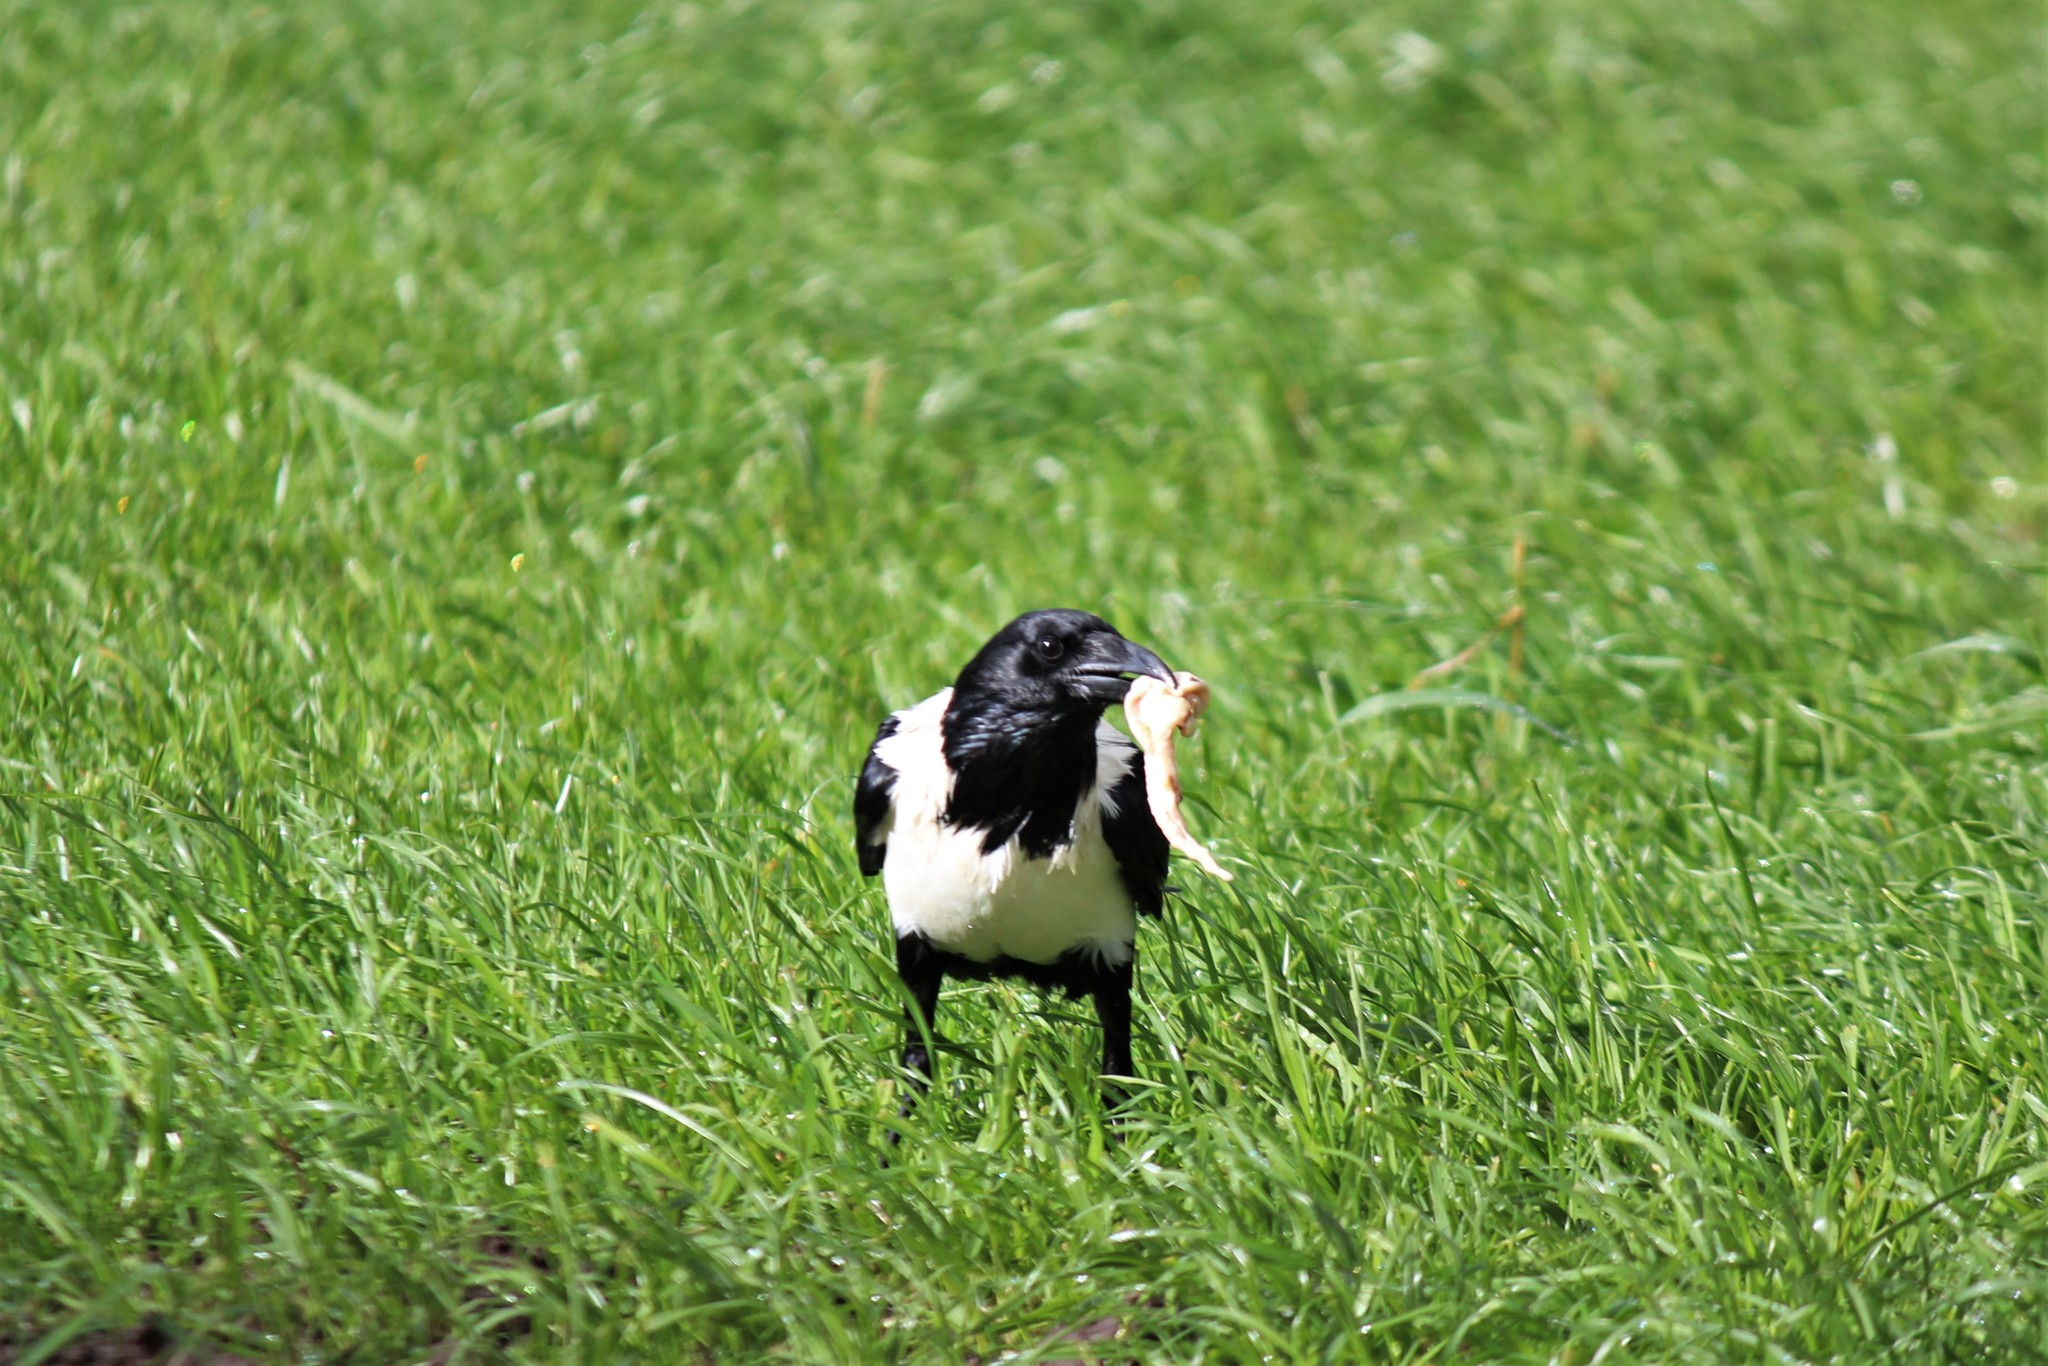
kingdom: Animalia
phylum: Chordata
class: Aves
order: Passeriformes
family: Corvidae
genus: Corvus
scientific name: Corvus albus
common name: Pied crow
